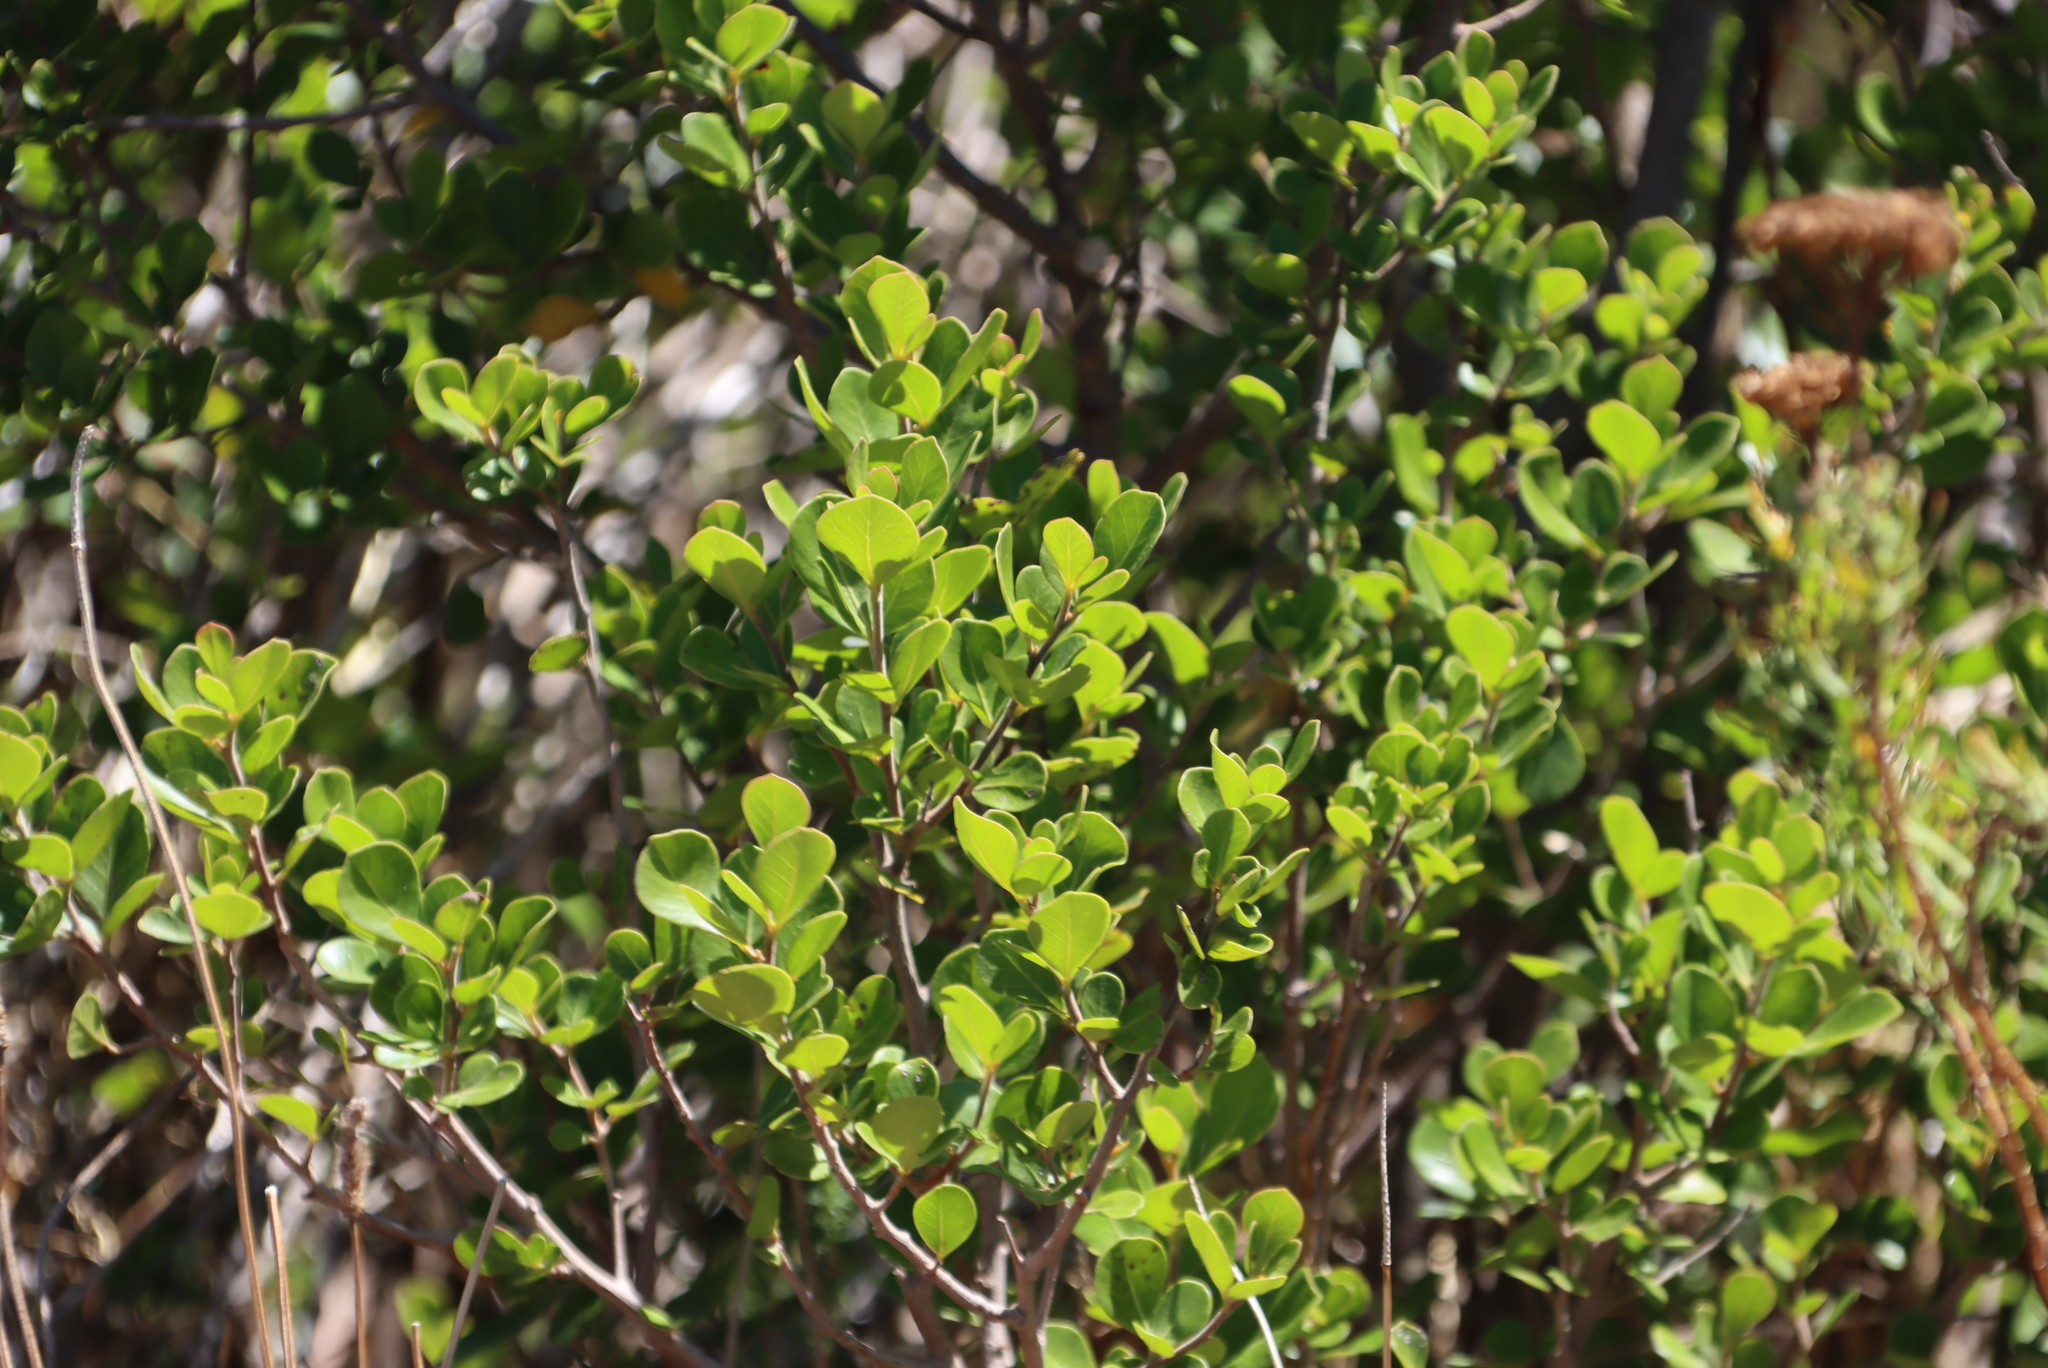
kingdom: Plantae
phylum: Tracheophyta
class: Magnoliopsida
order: Sapindales
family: Anacardiaceae
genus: Searsia
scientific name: Searsia lucida
